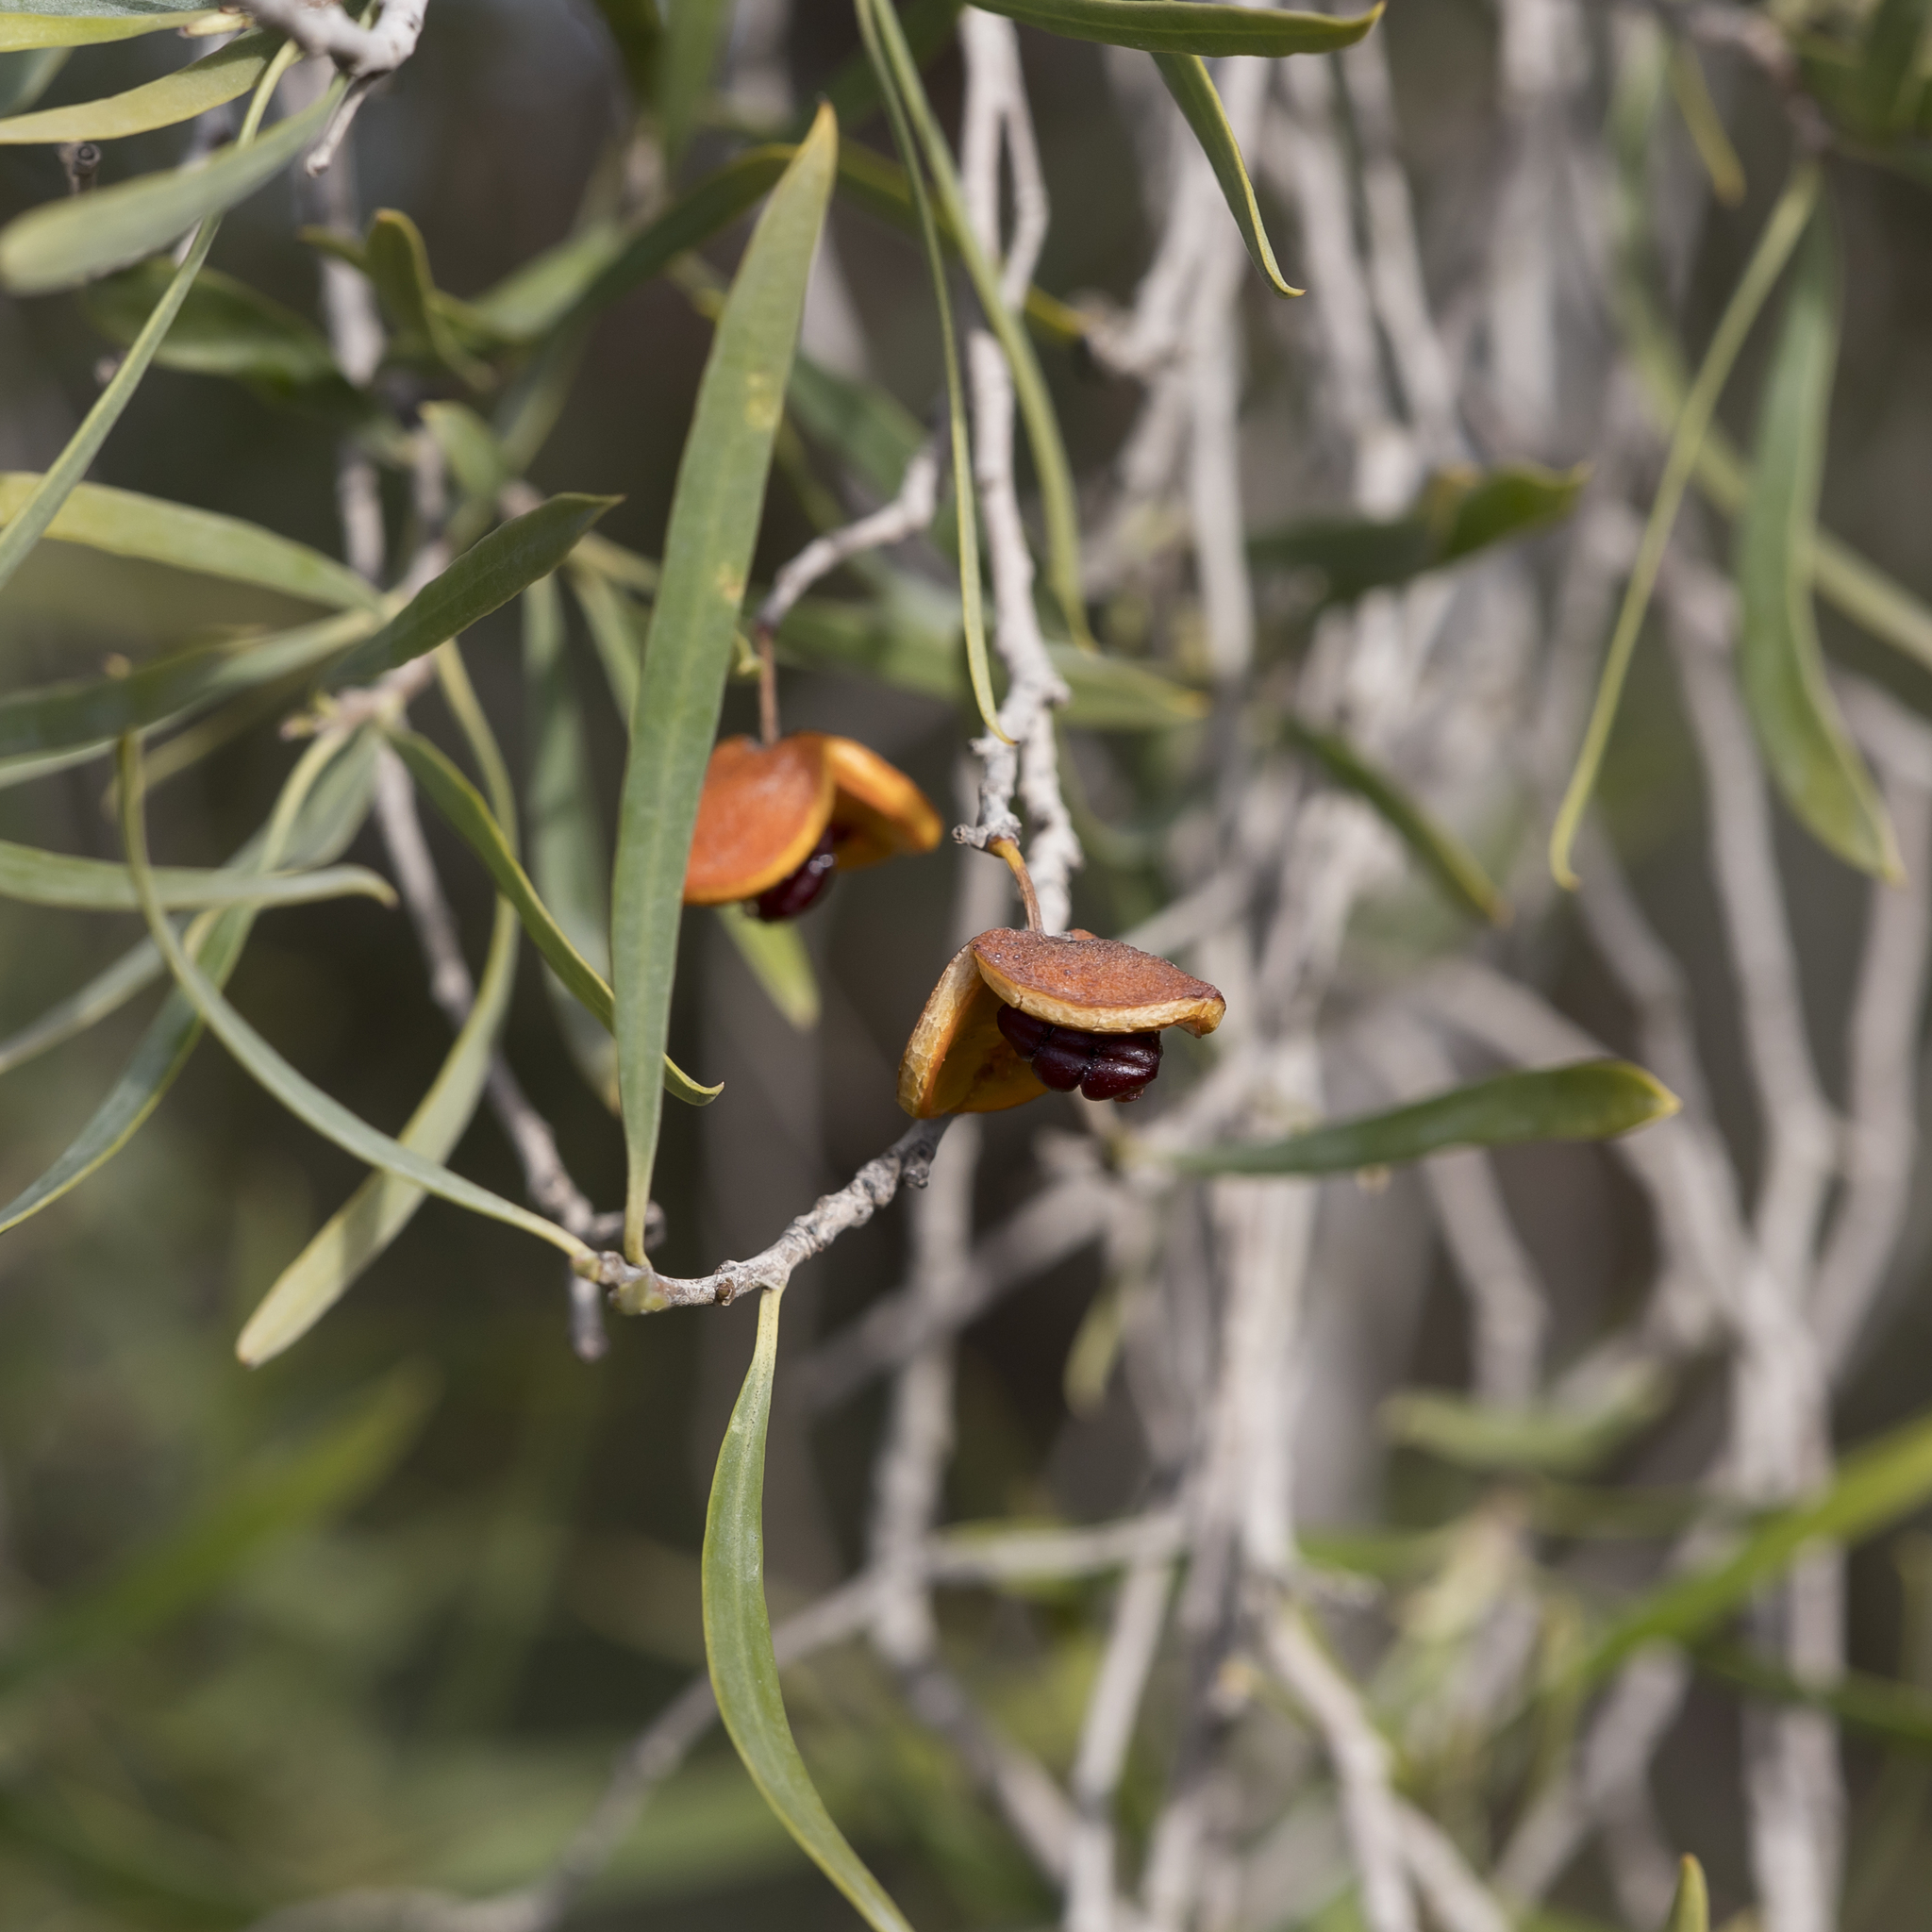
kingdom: Plantae
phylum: Tracheophyta
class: Magnoliopsida
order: Apiales
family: Pittosporaceae
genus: Pittosporum
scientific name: Pittosporum angustifolium
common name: Weeping pittosporum
